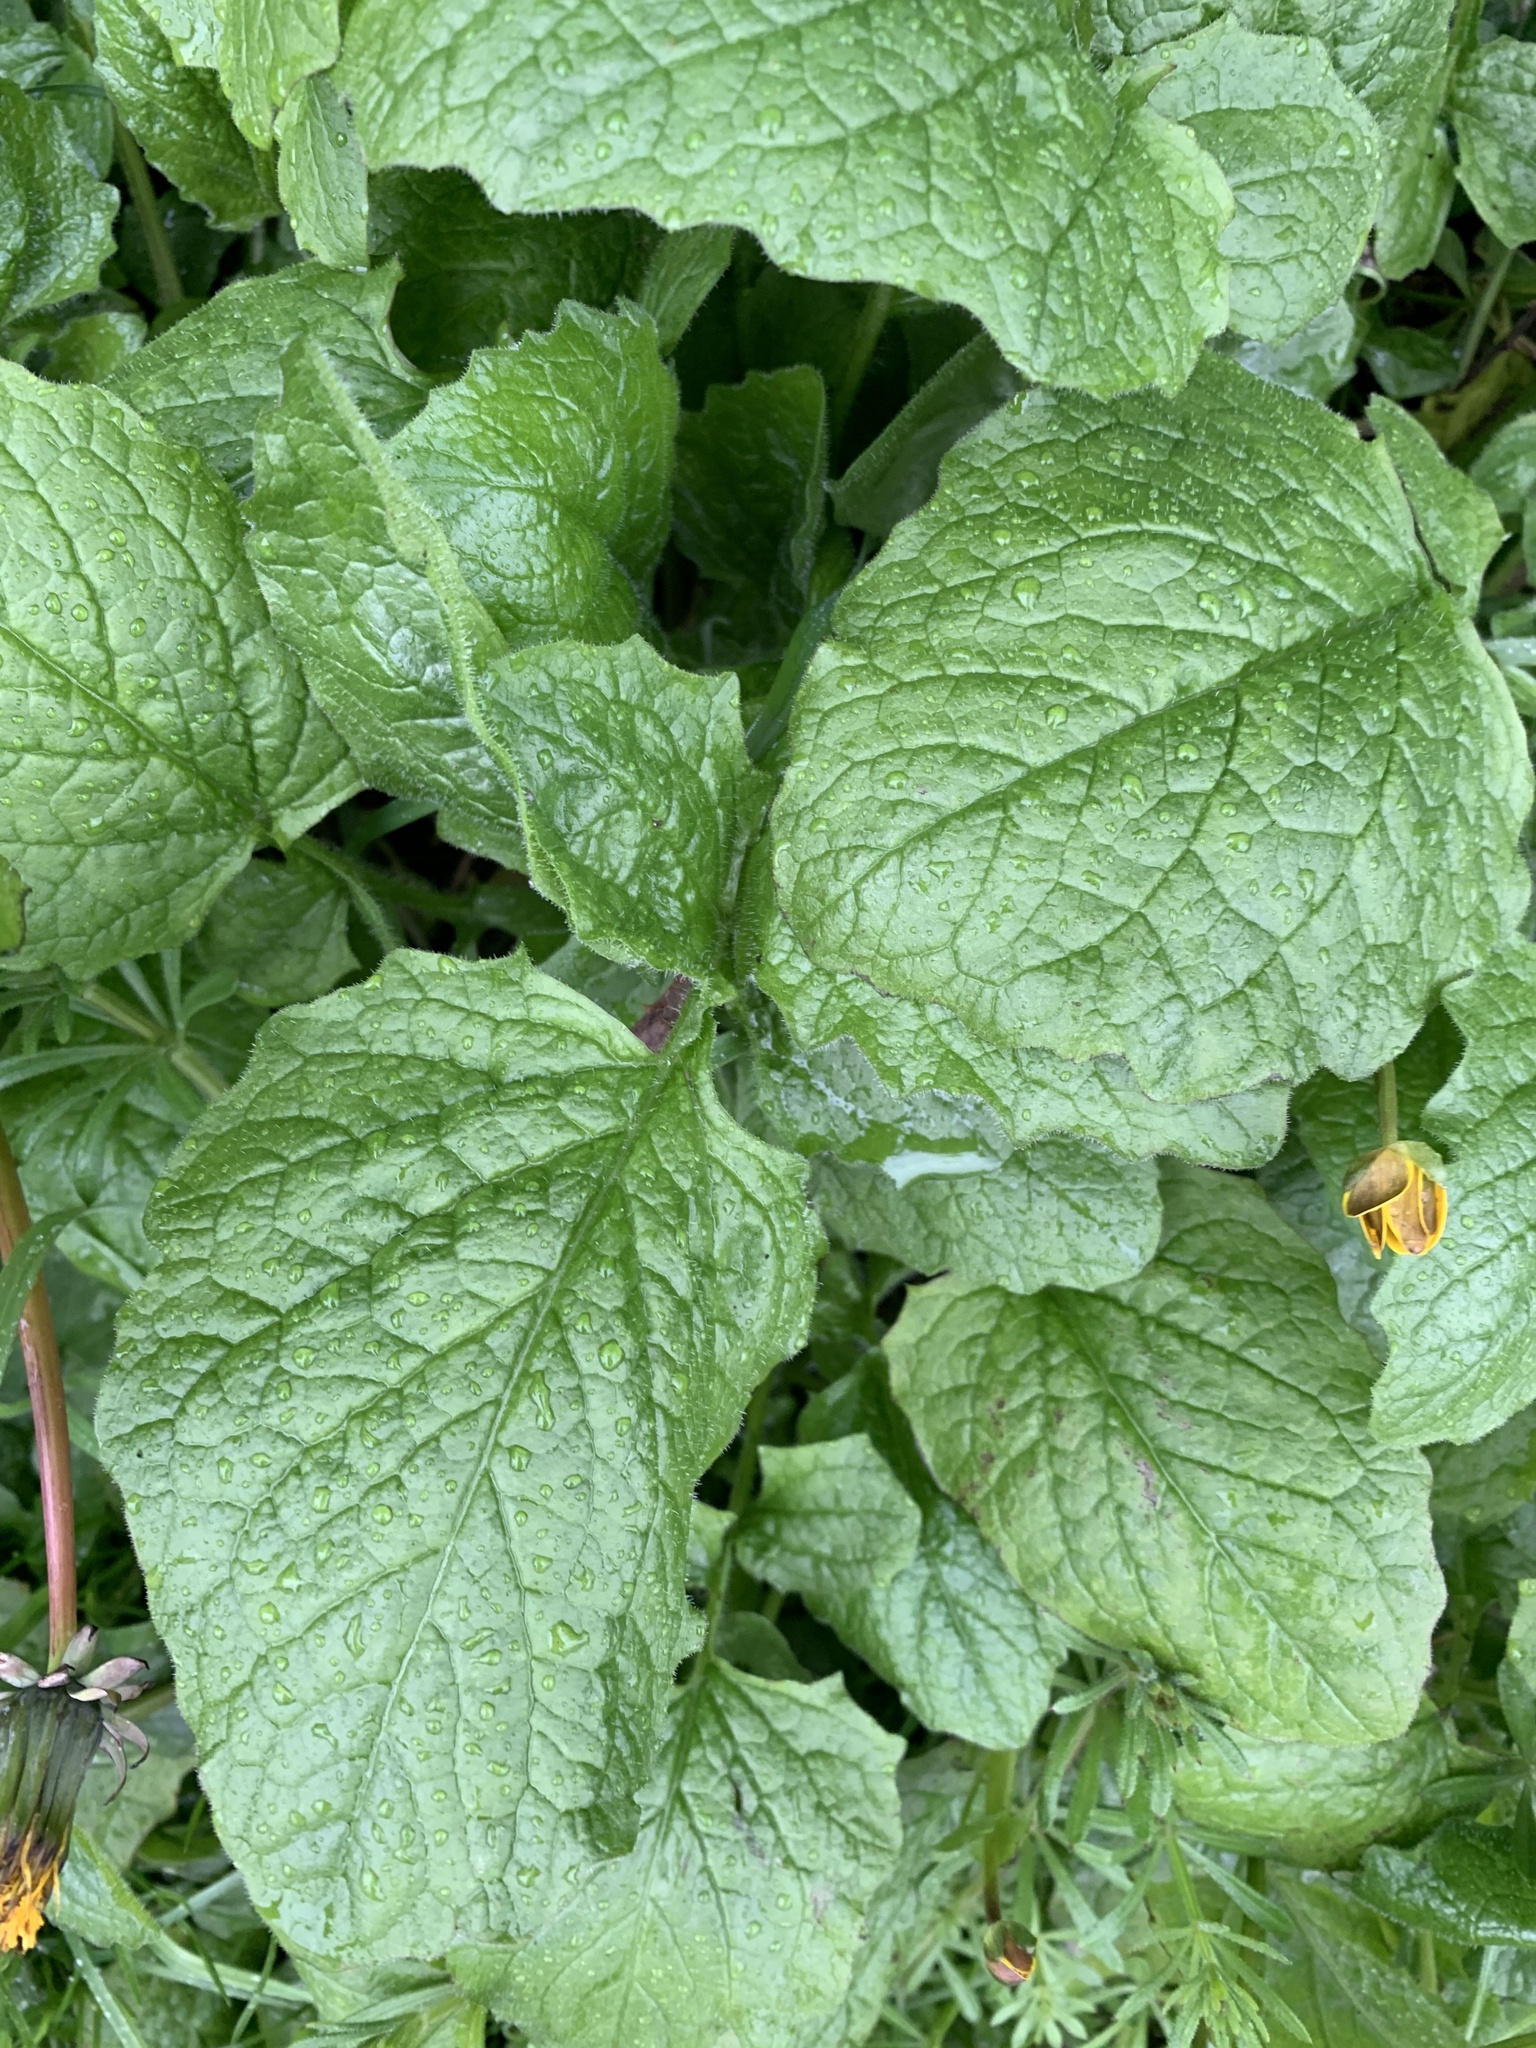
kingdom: Plantae
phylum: Tracheophyta
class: Magnoliopsida
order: Asterales
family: Asteraceae
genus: Lapsana
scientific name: Lapsana communis
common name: Nipplewort
